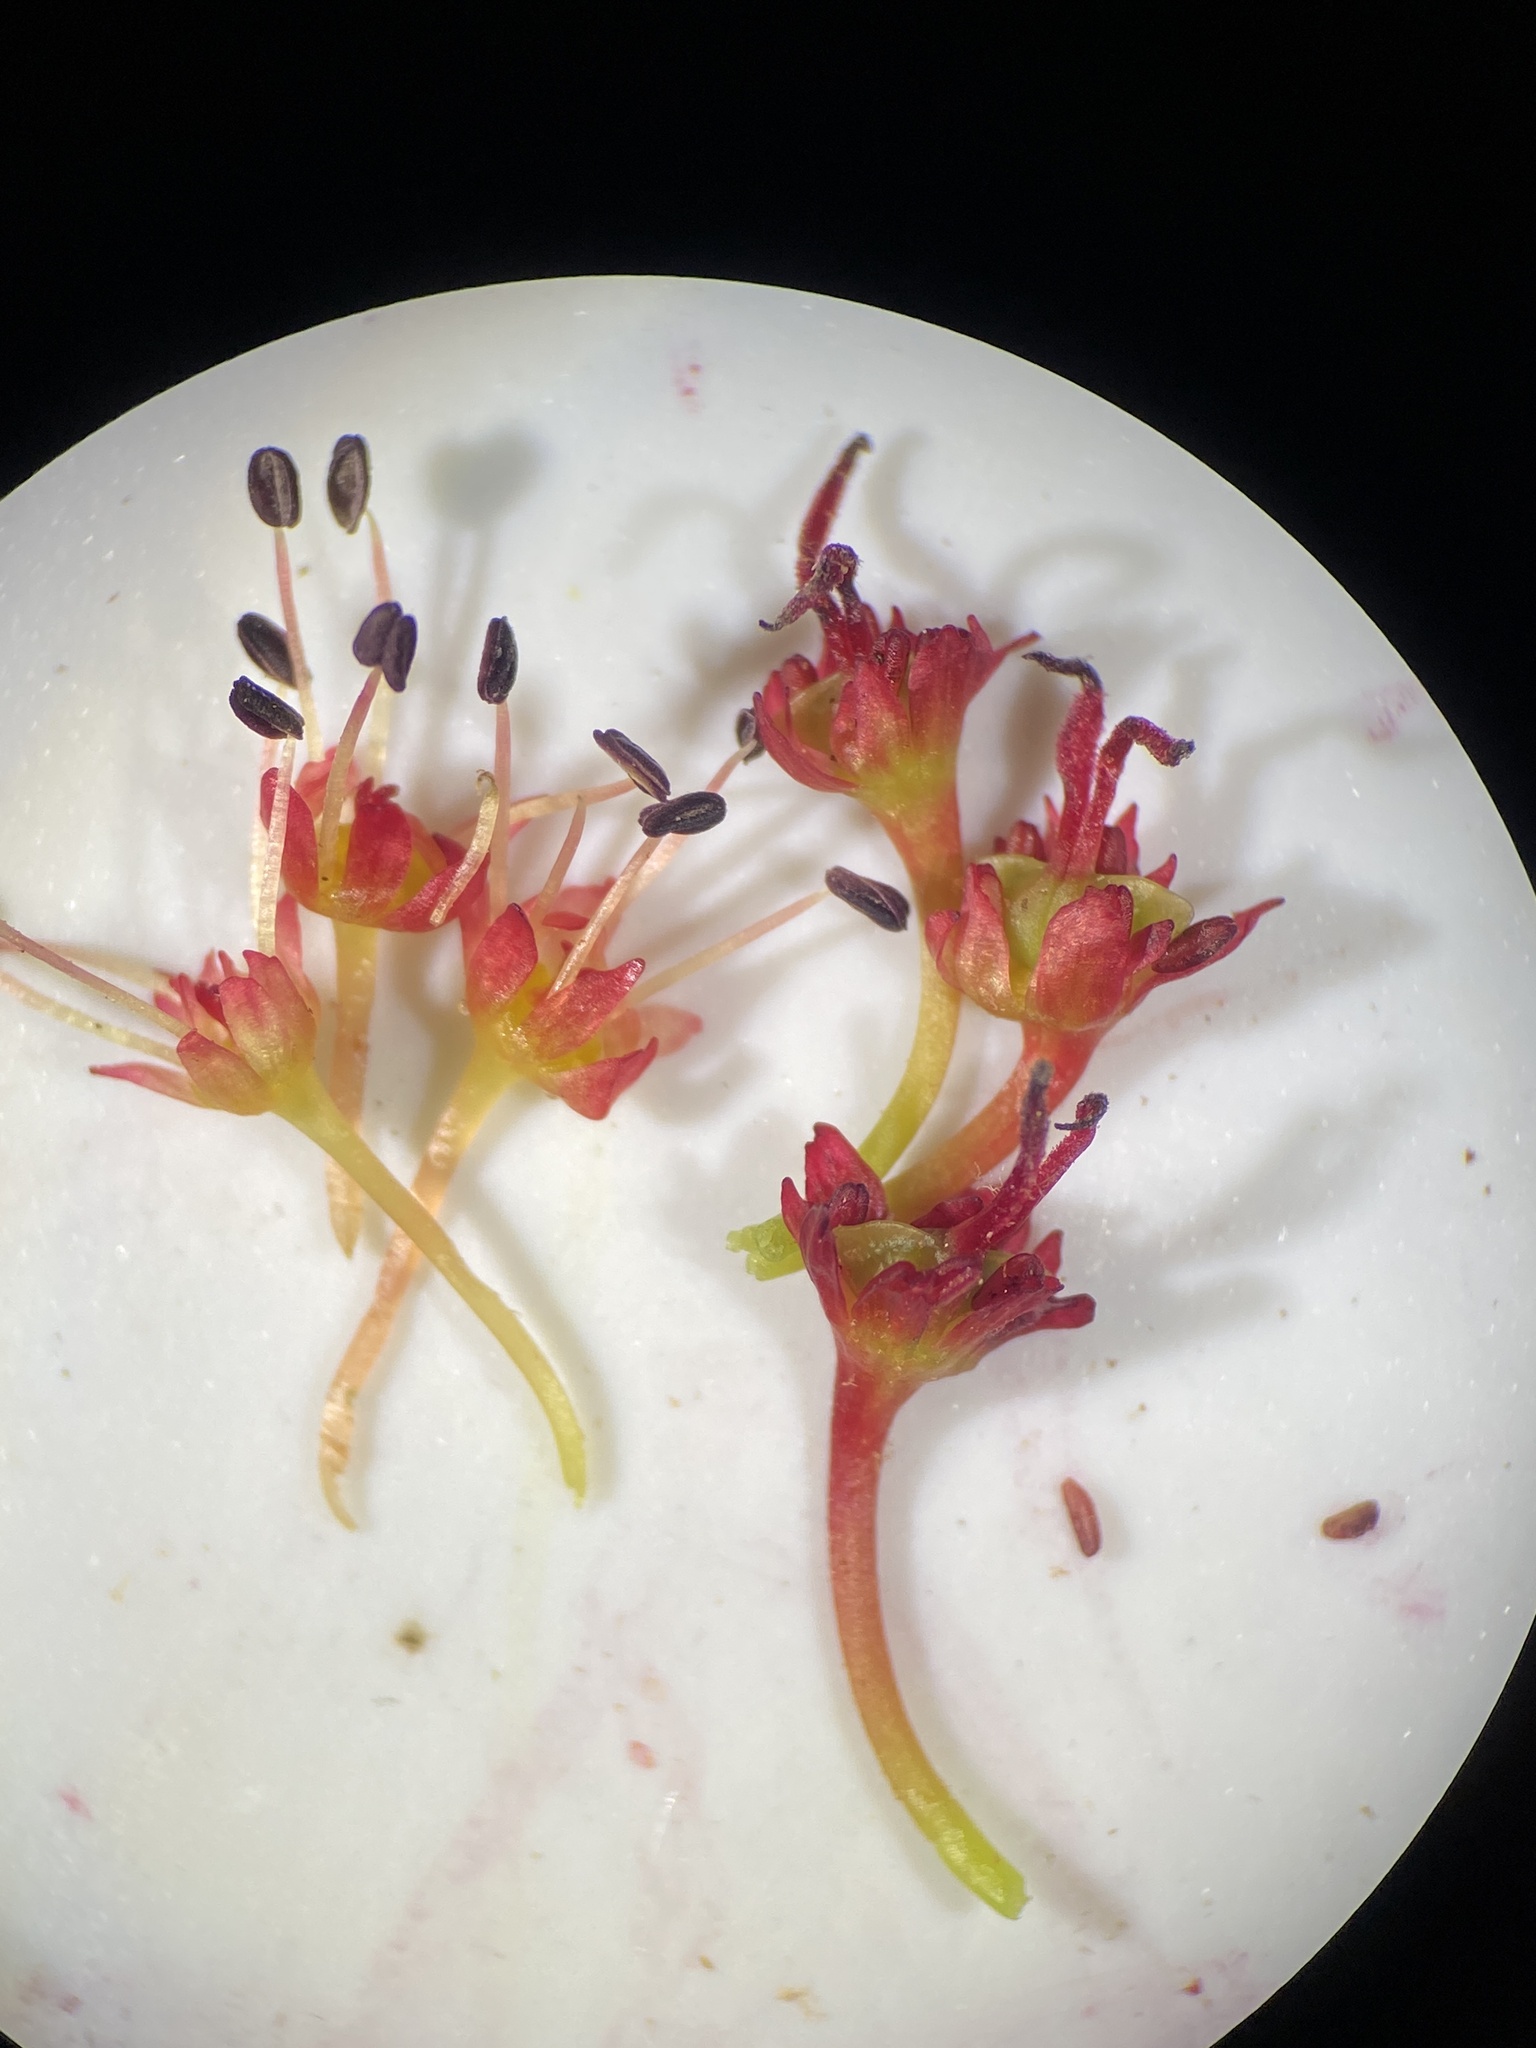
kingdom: Plantae
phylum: Tracheophyta
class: Magnoliopsida
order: Sapindales
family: Sapindaceae
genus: Acer
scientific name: Acer rubrum
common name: Red maple
